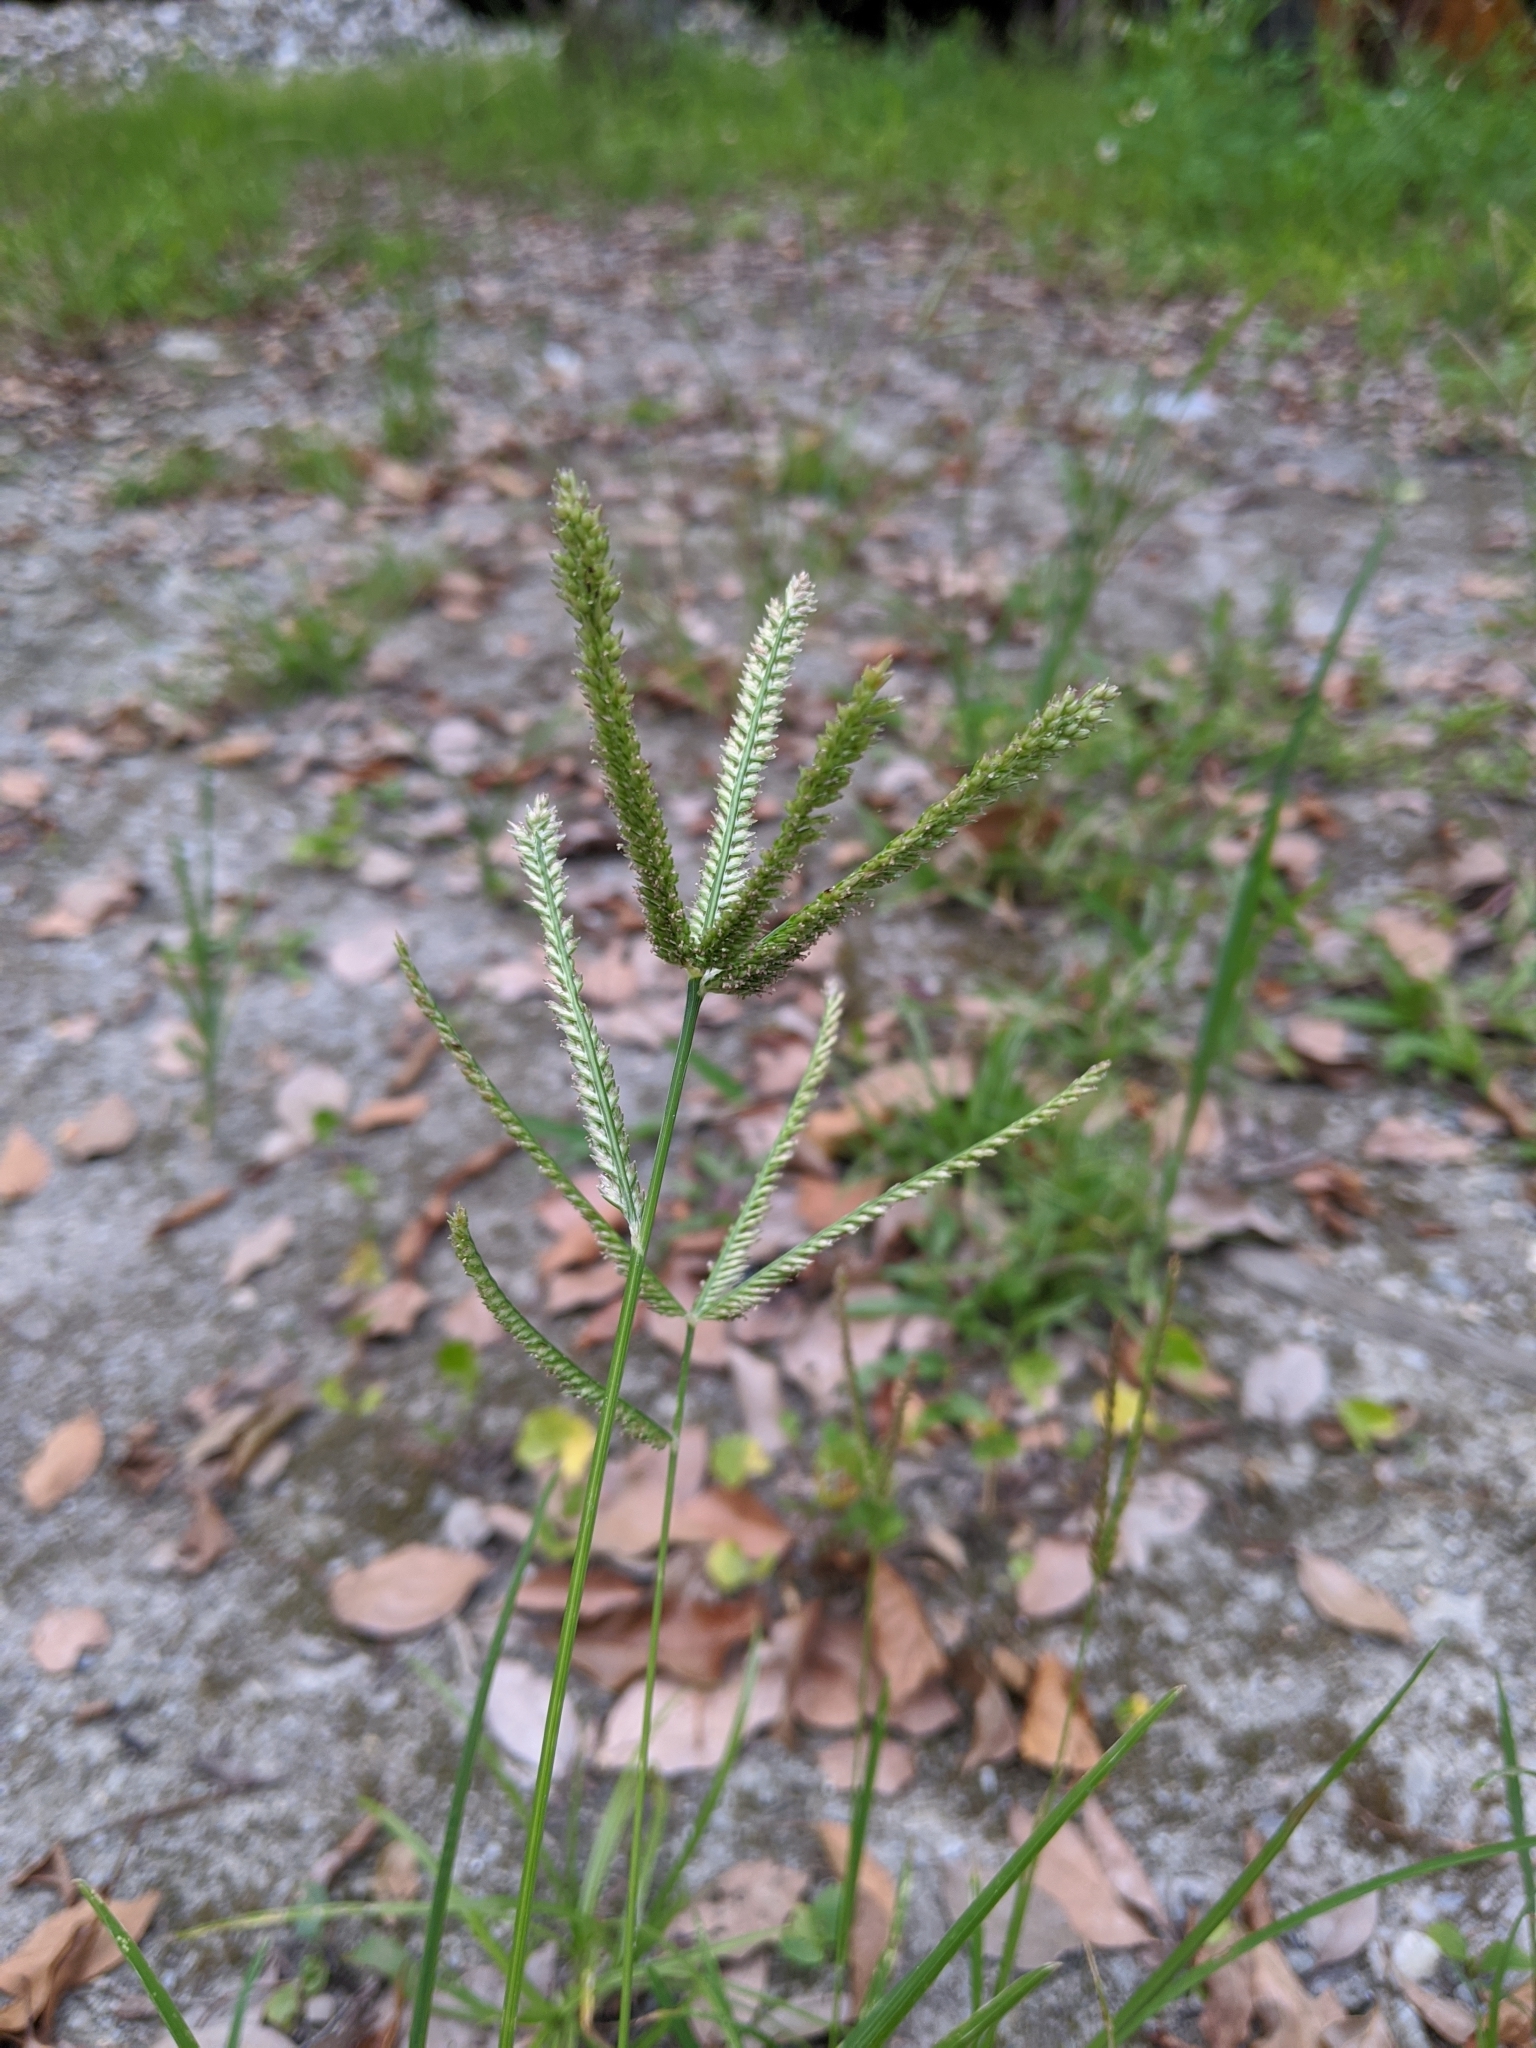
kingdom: Plantae
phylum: Tracheophyta
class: Liliopsida
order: Poales
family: Poaceae
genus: Eleusine
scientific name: Eleusine indica
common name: Yard-grass
